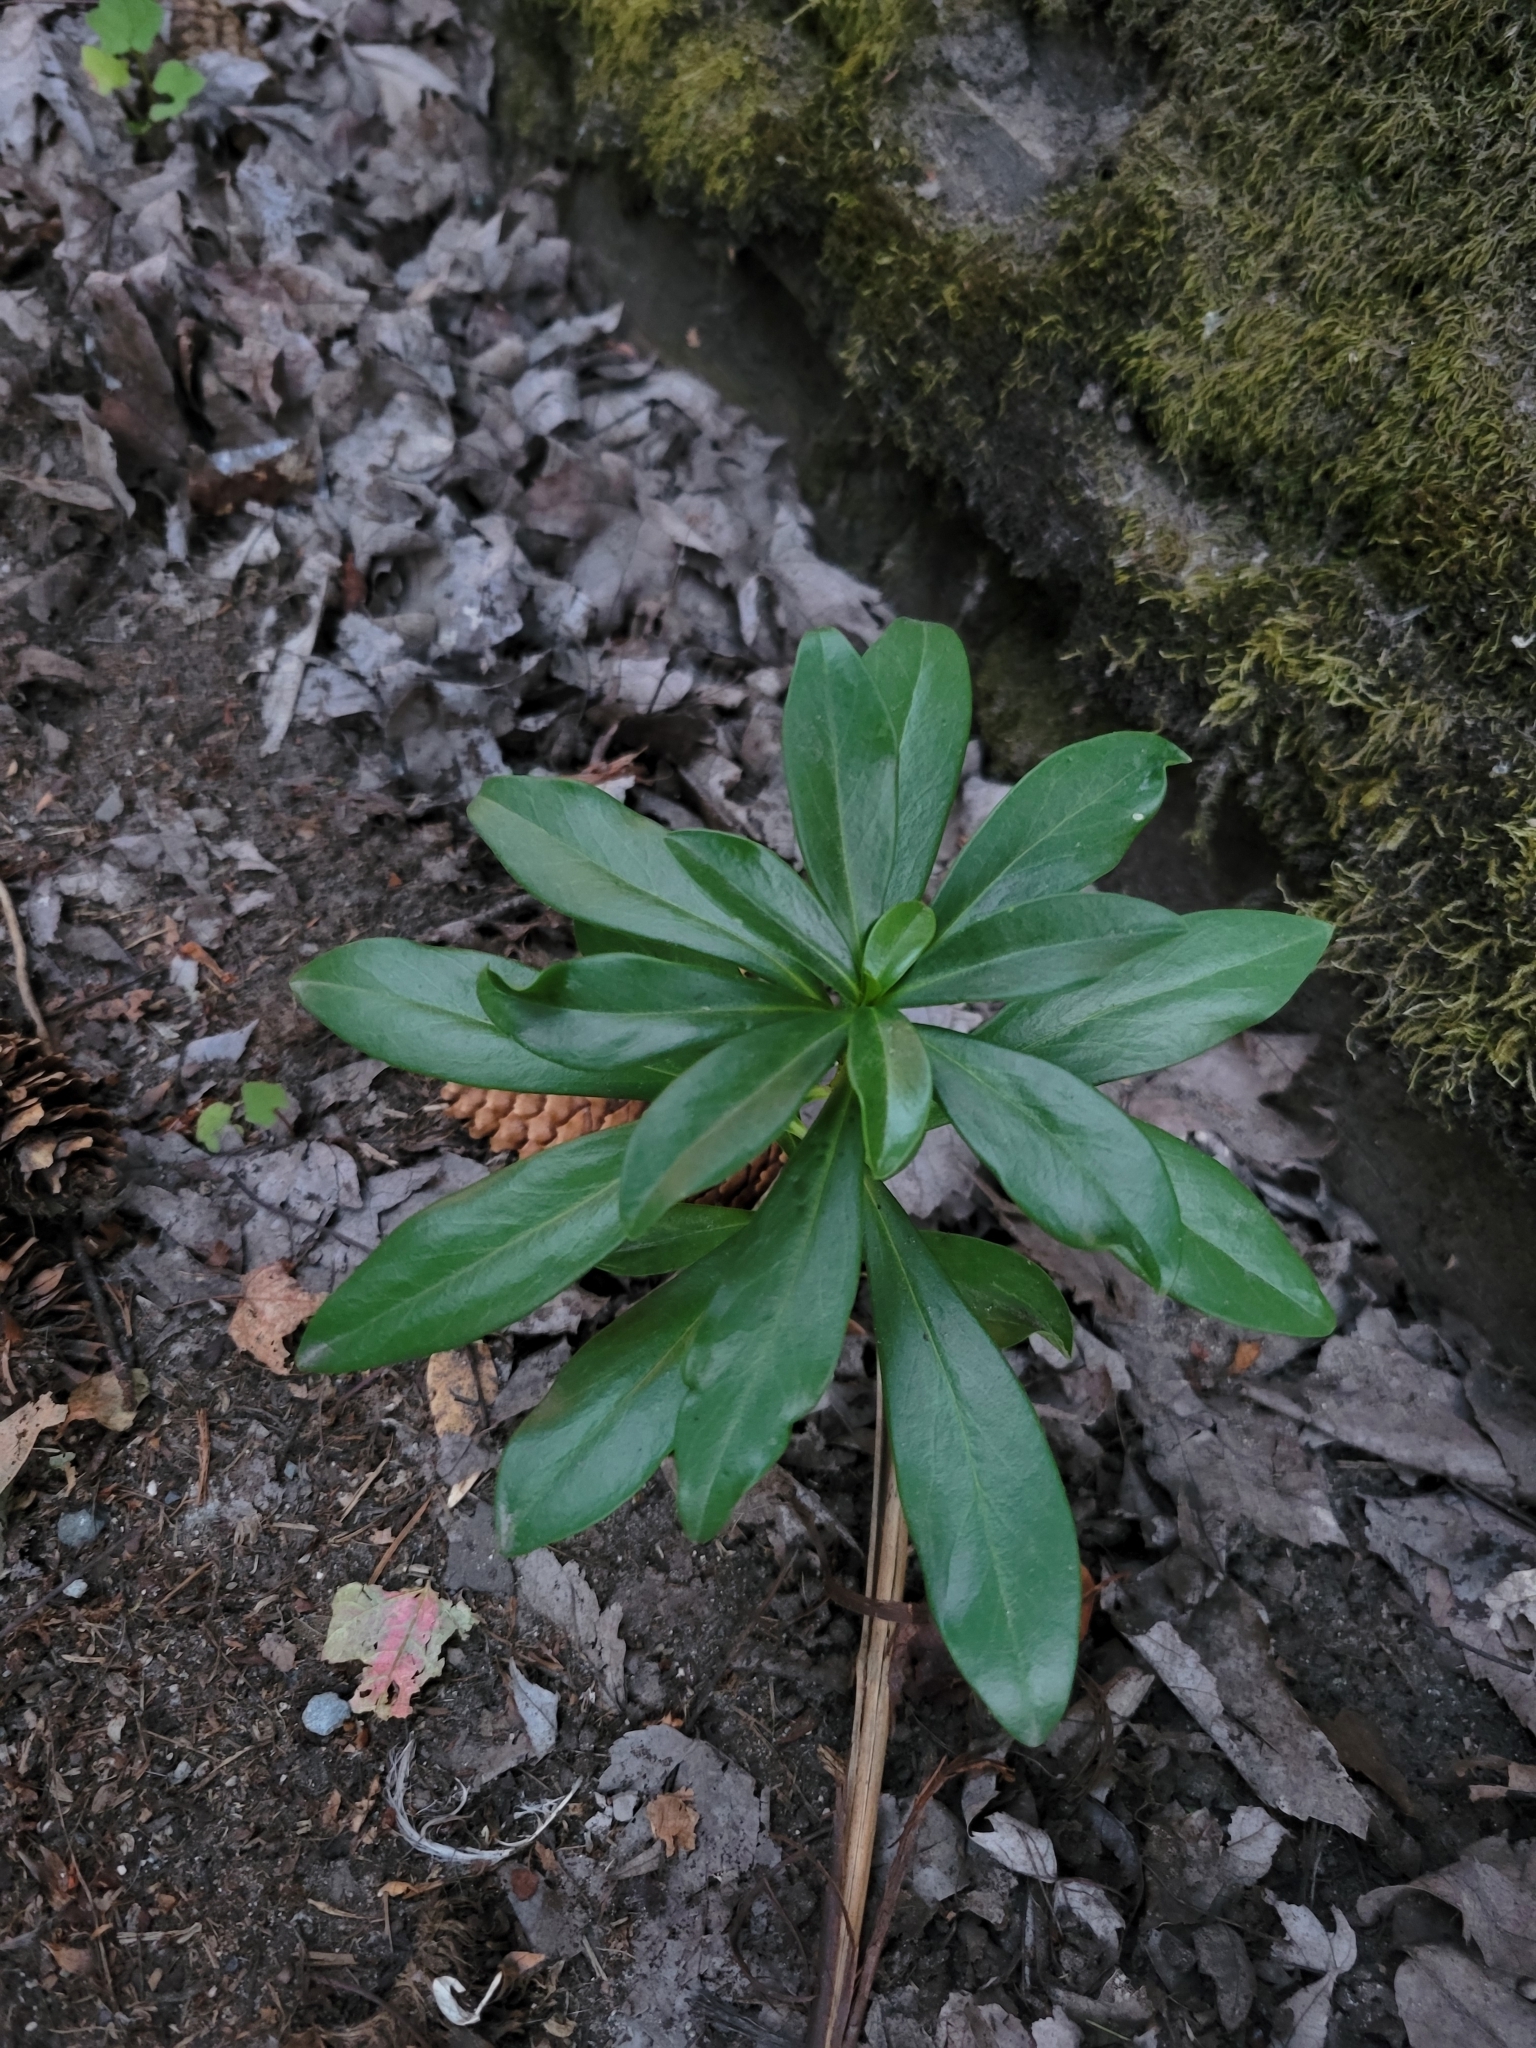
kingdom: Plantae
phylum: Tracheophyta
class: Magnoliopsida
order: Malvales
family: Thymelaeaceae
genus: Daphne
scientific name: Daphne laureola
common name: Spurge-laurel
